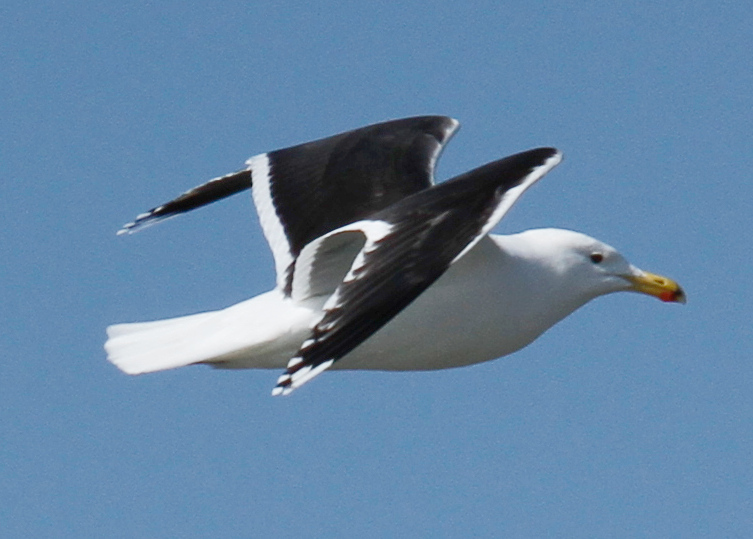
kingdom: Animalia
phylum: Chordata
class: Aves
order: Charadriiformes
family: Laridae
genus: Larus
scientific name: Larus marinus
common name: Great black-backed gull
